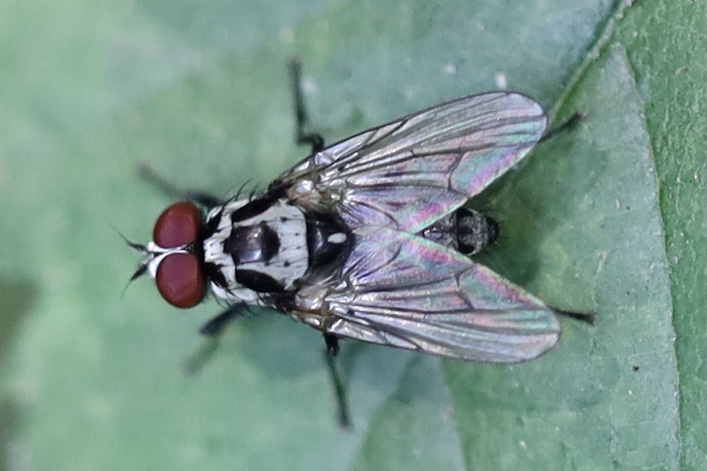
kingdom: Animalia
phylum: Arthropoda
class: Insecta
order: Diptera
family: Anthomyiidae
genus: Anthomyia
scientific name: Anthomyia procellaris
